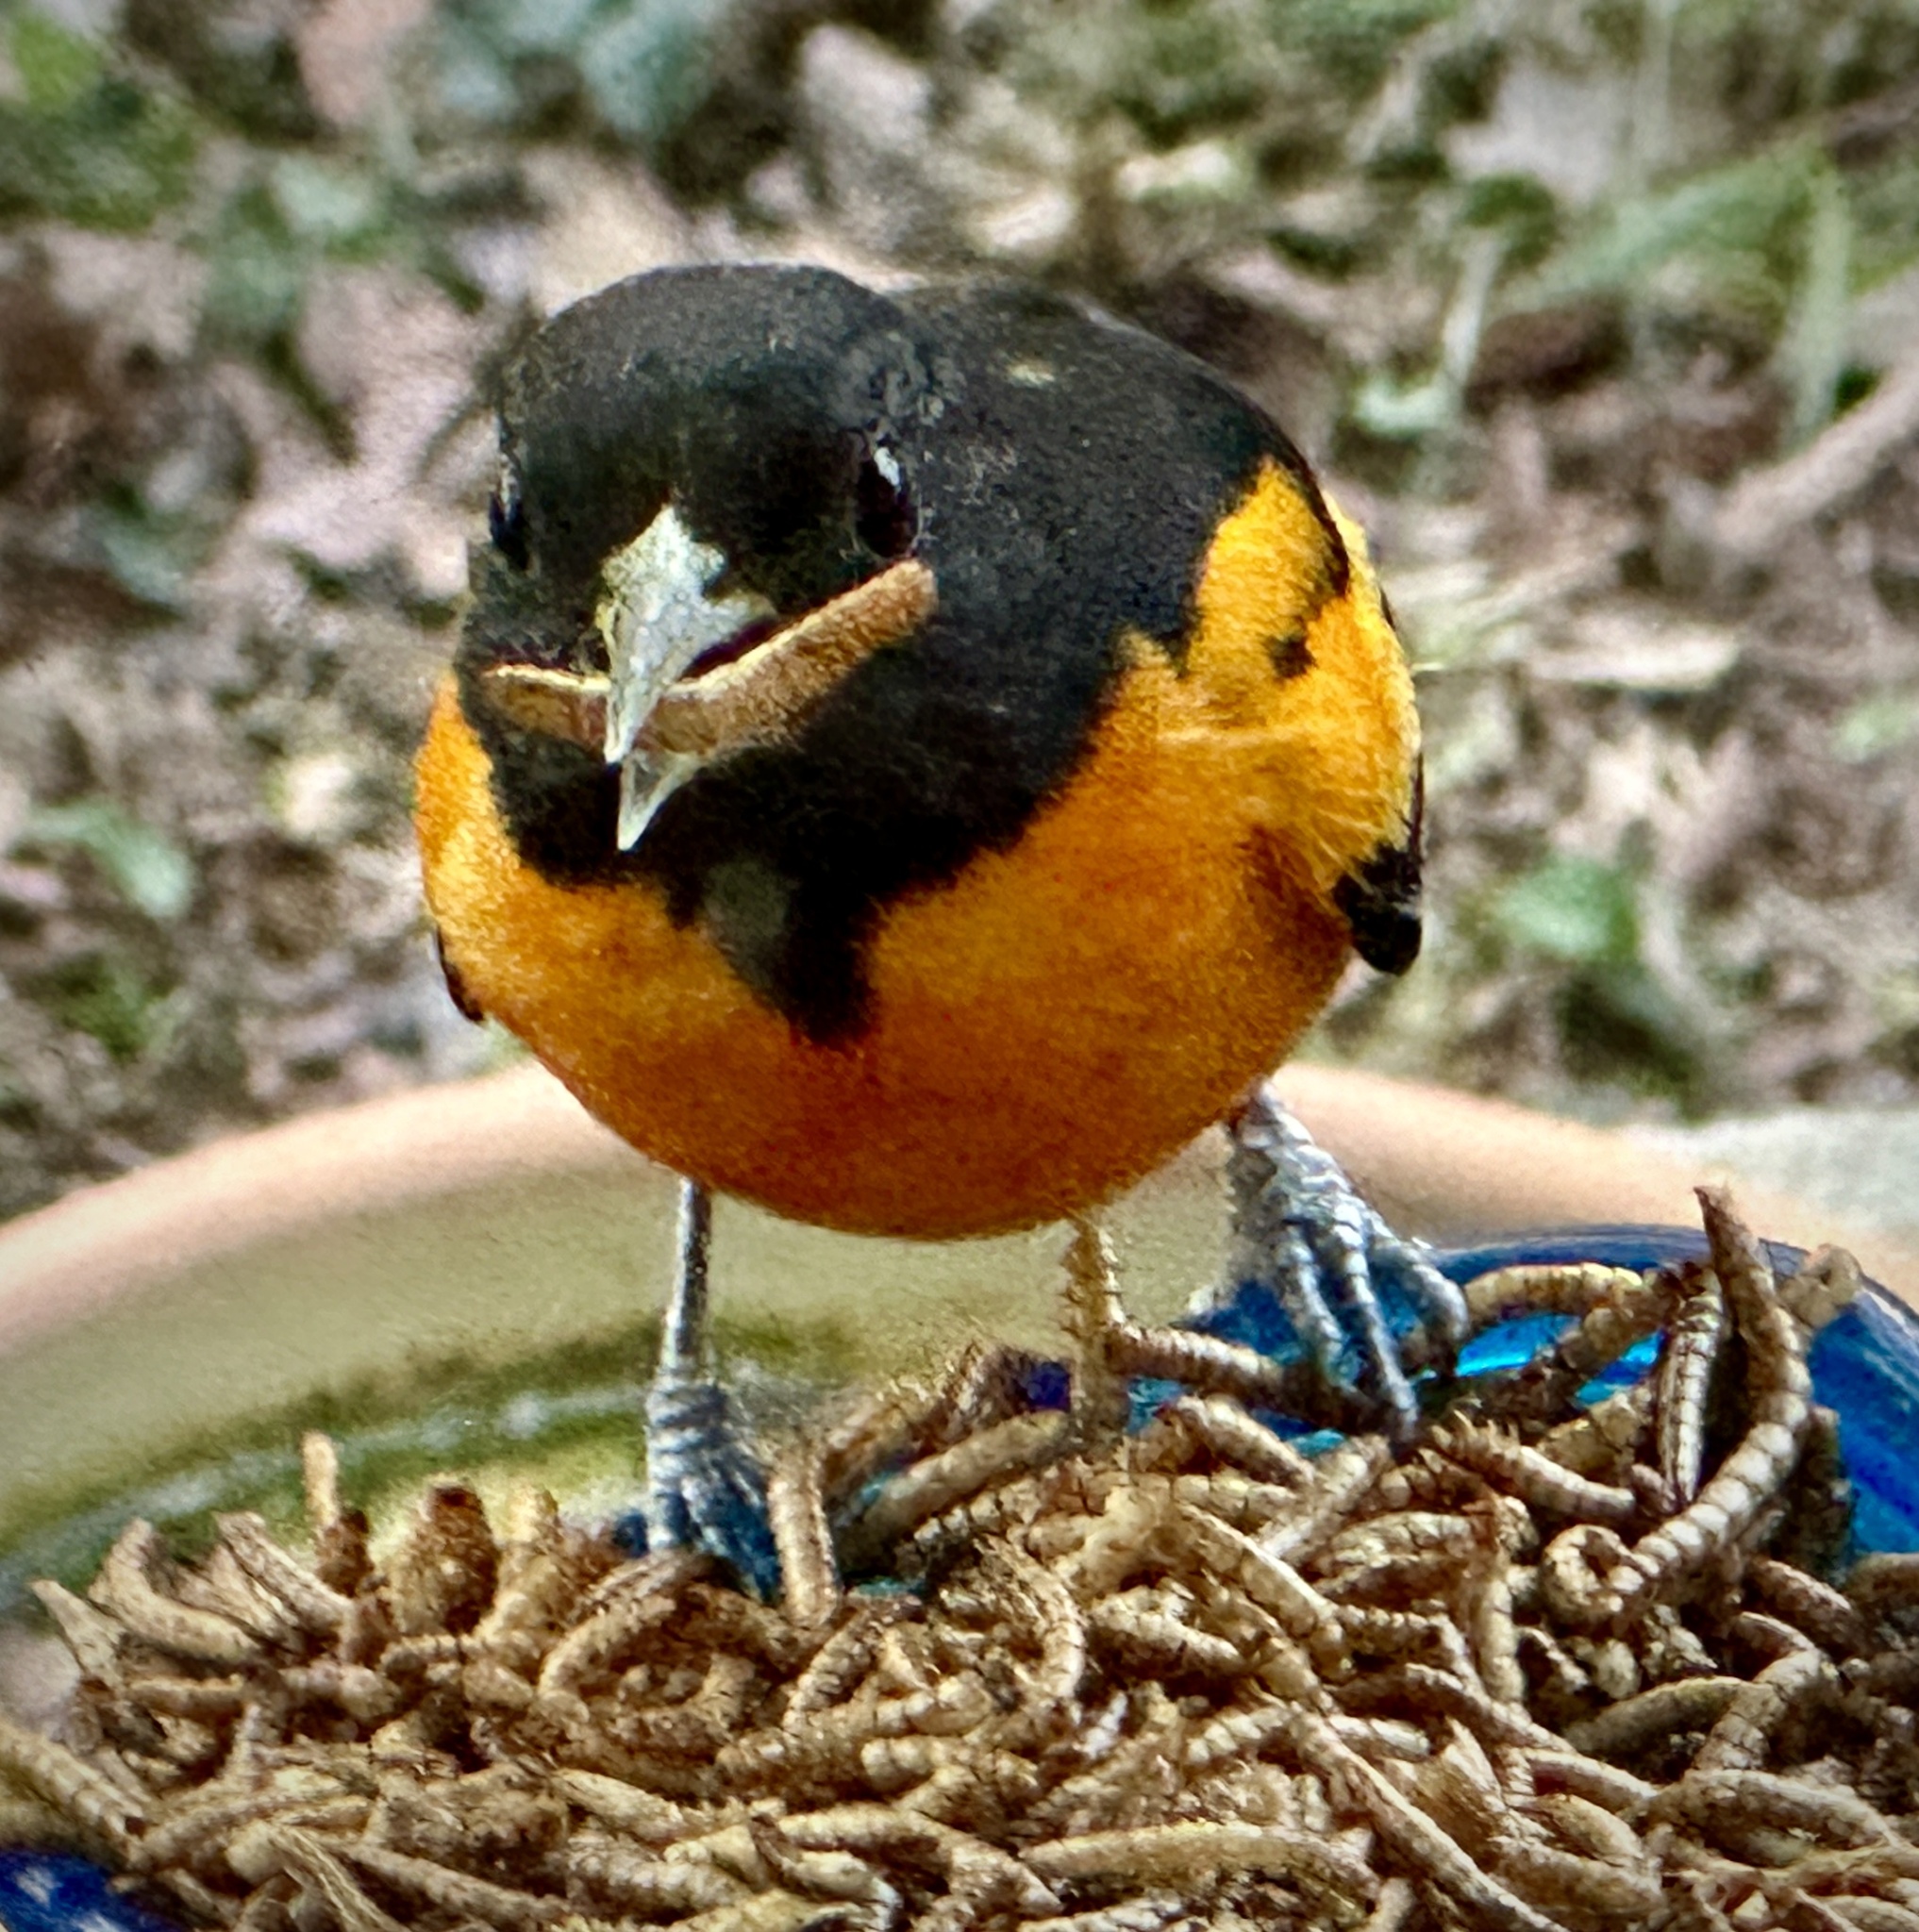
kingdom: Animalia
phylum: Chordata
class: Aves
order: Passeriformes
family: Icteridae
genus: Icterus
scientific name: Icterus galbula
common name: Baltimore oriole
